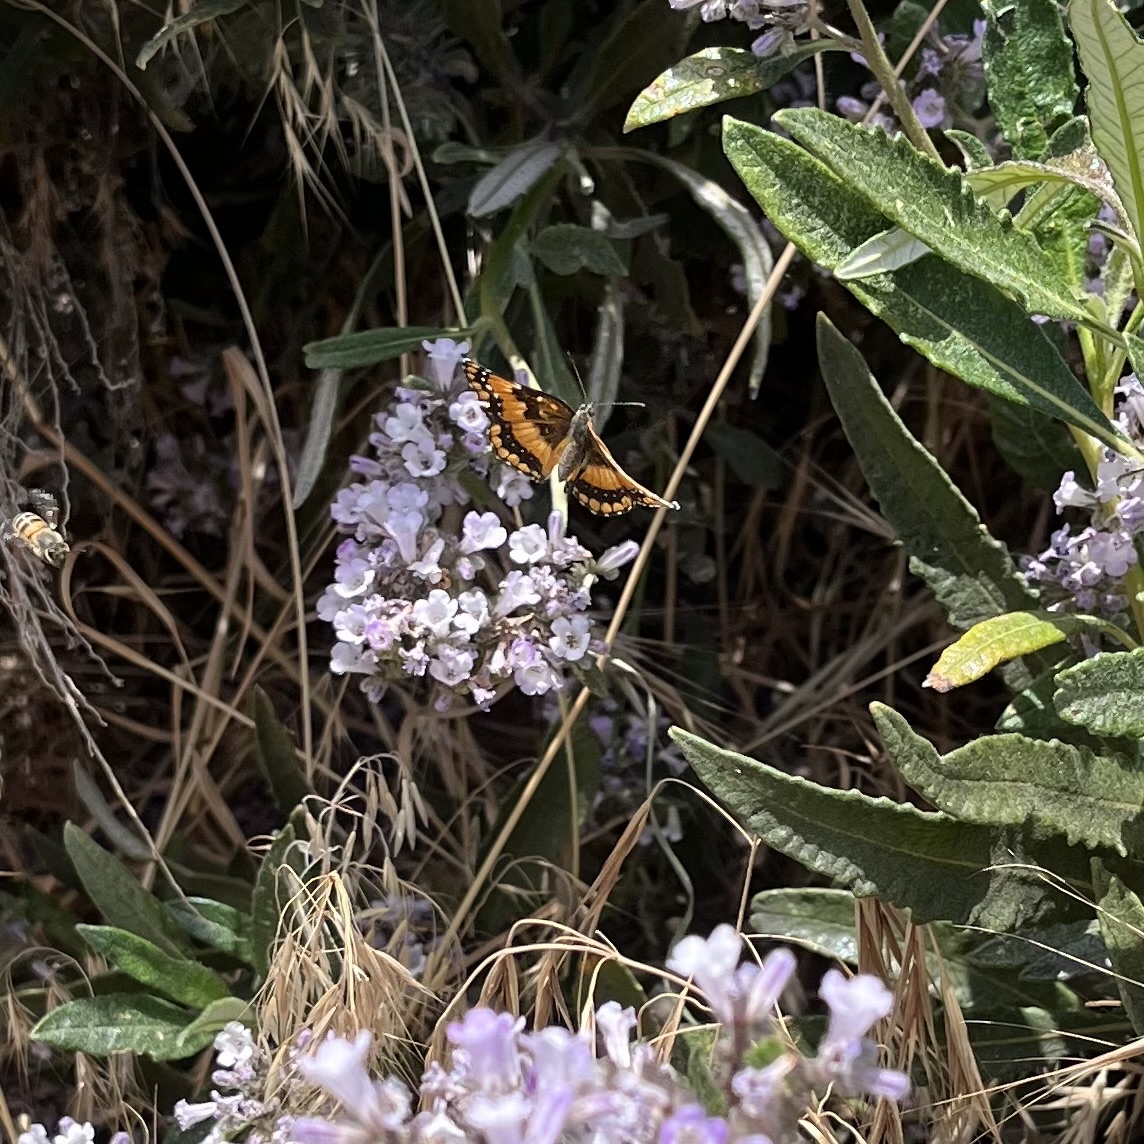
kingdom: Animalia
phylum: Arthropoda
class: Insecta
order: Lepidoptera
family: Nymphalidae
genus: Chlosyne
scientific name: Chlosyne californica
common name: California patch
